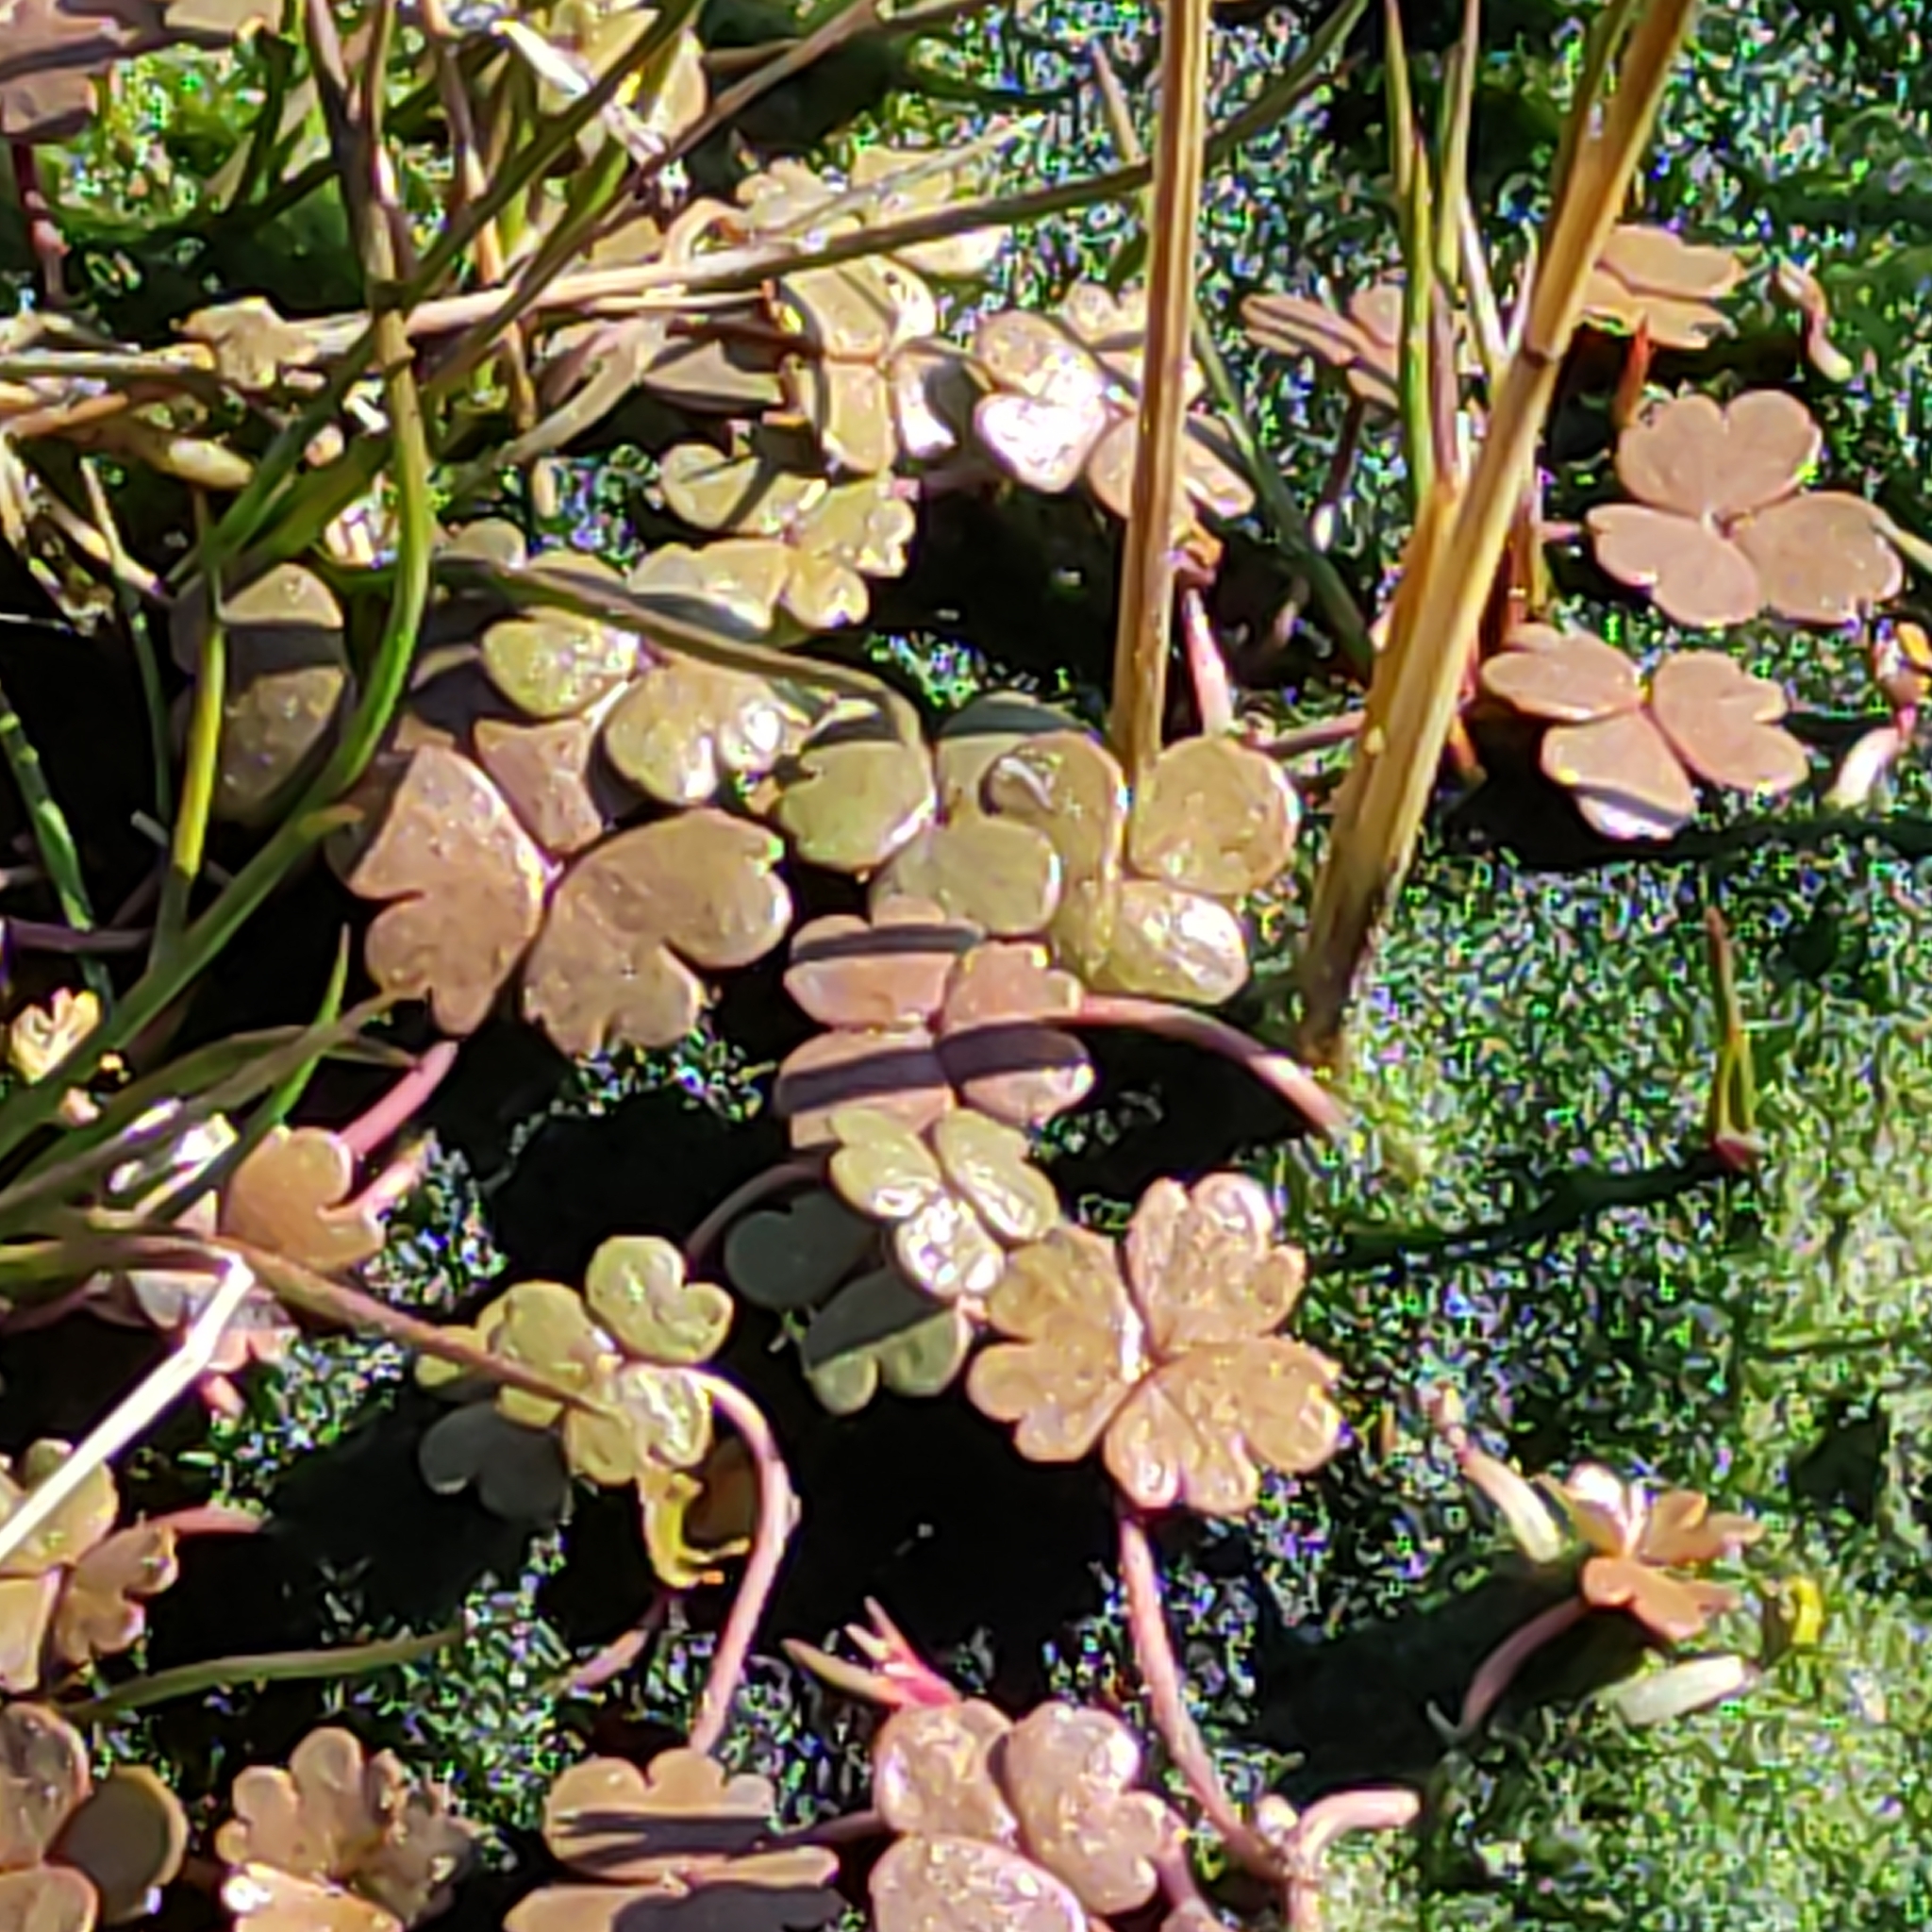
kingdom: Plantae
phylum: Tracheophyta
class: Magnoliopsida
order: Apiales
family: Araliaceae
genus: Hydrocotyle
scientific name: Hydrocotyle sulcata
